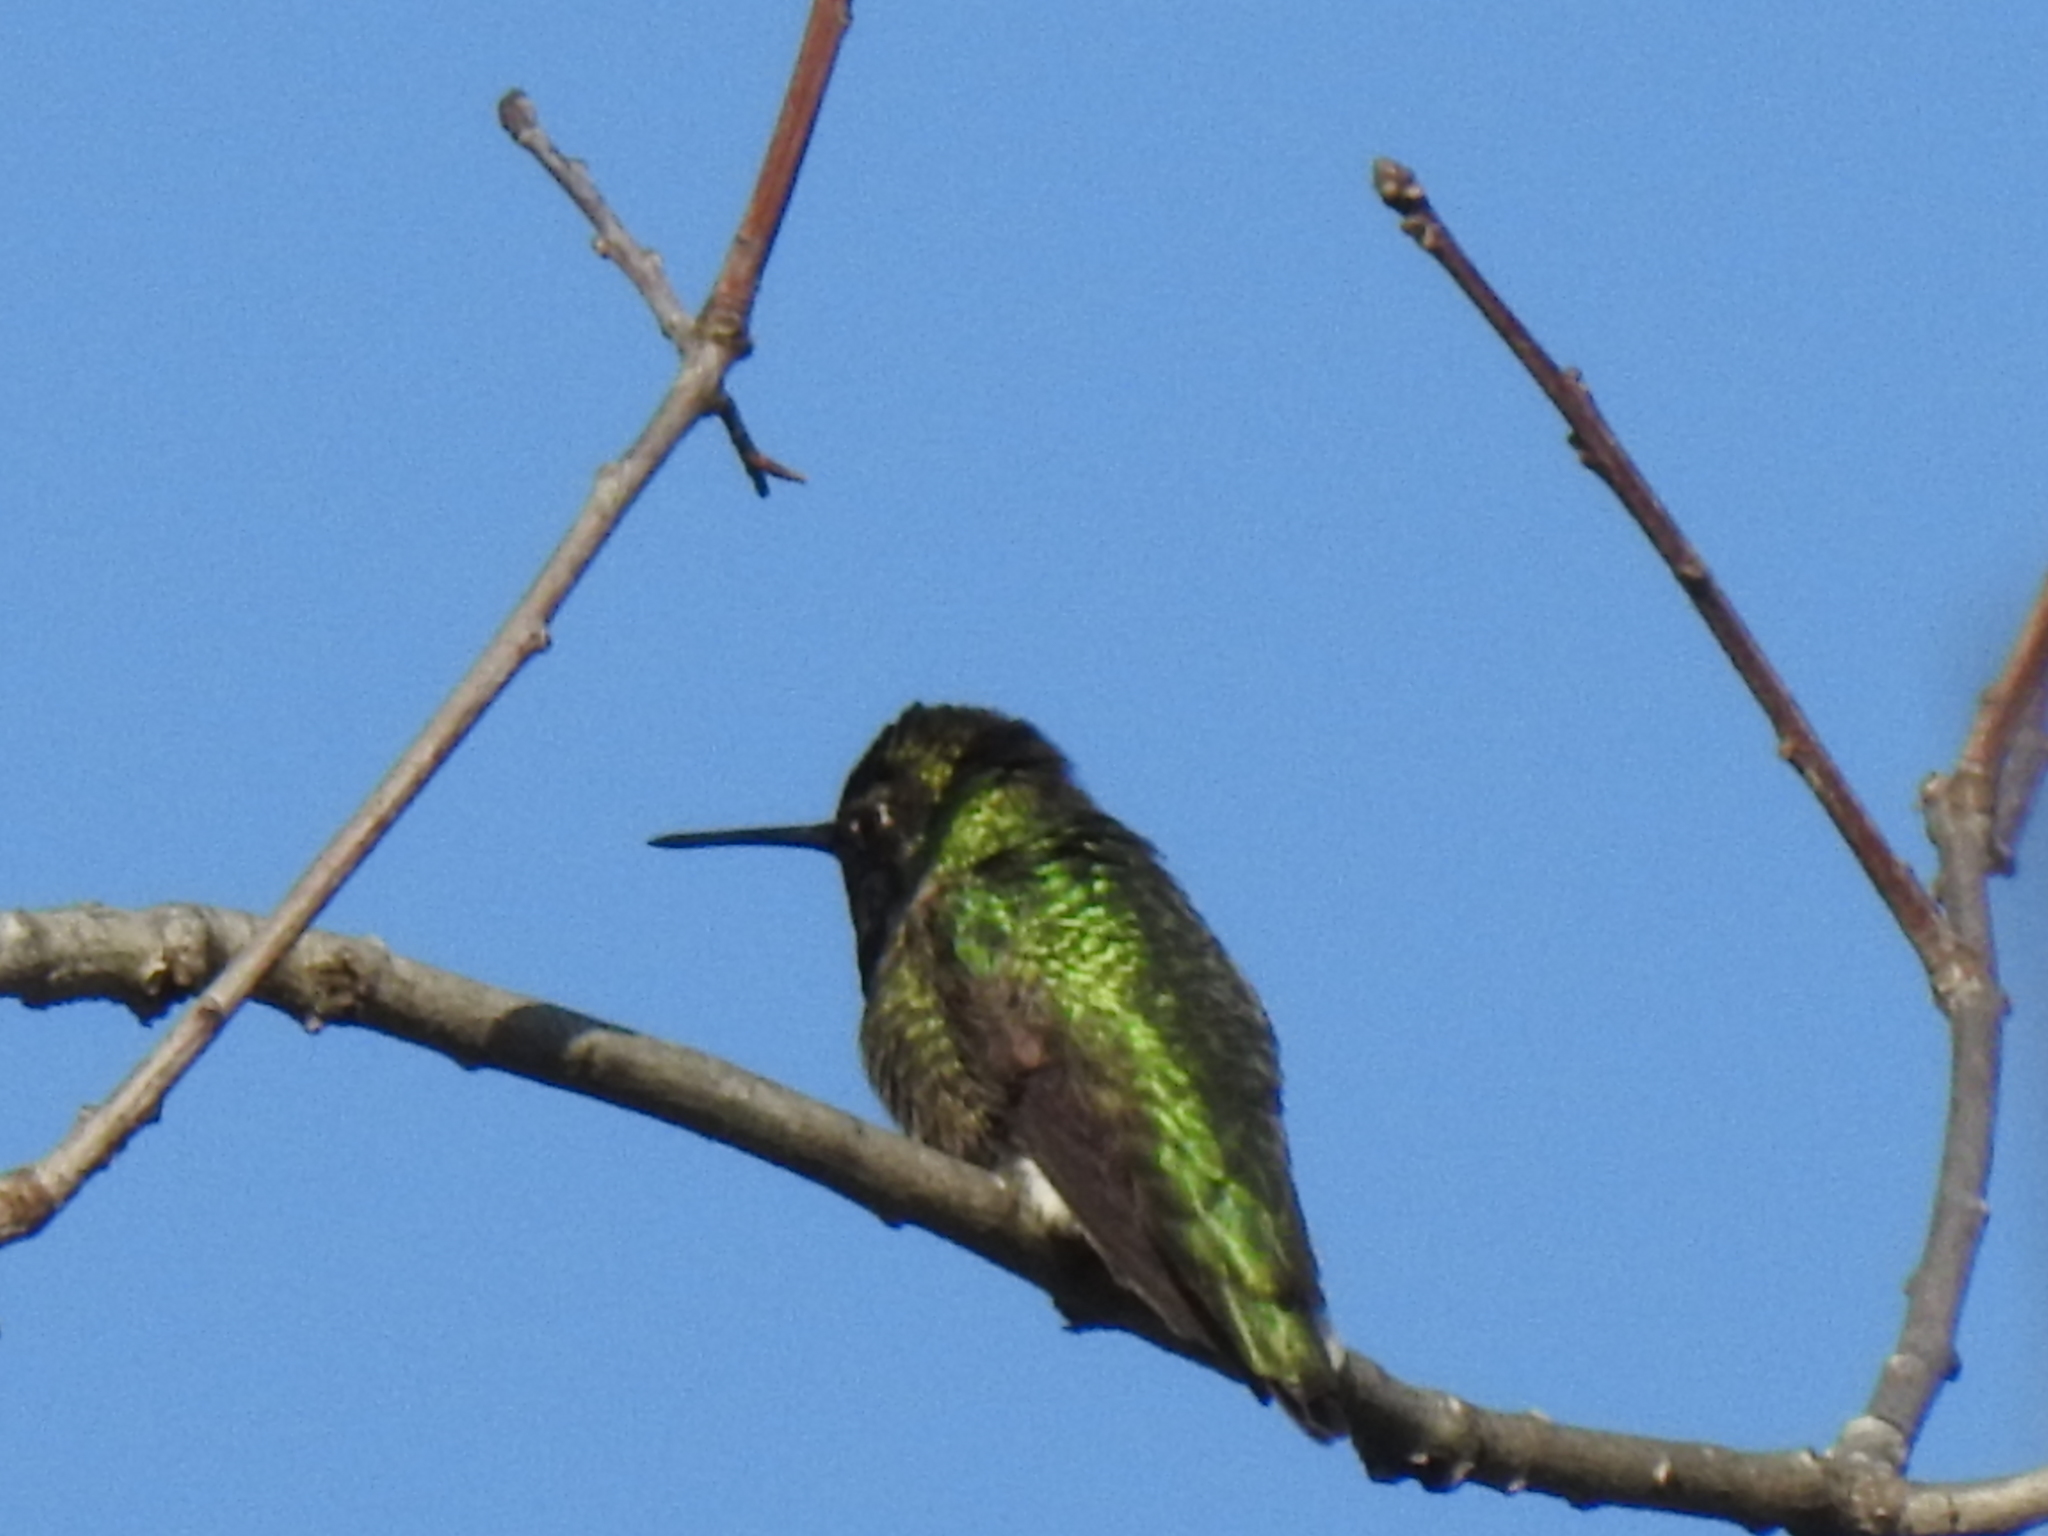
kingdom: Animalia
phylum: Chordata
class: Aves
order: Apodiformes
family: Trochilidae
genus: Calypte
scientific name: Calypte anna
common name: Anna's hummingbird
